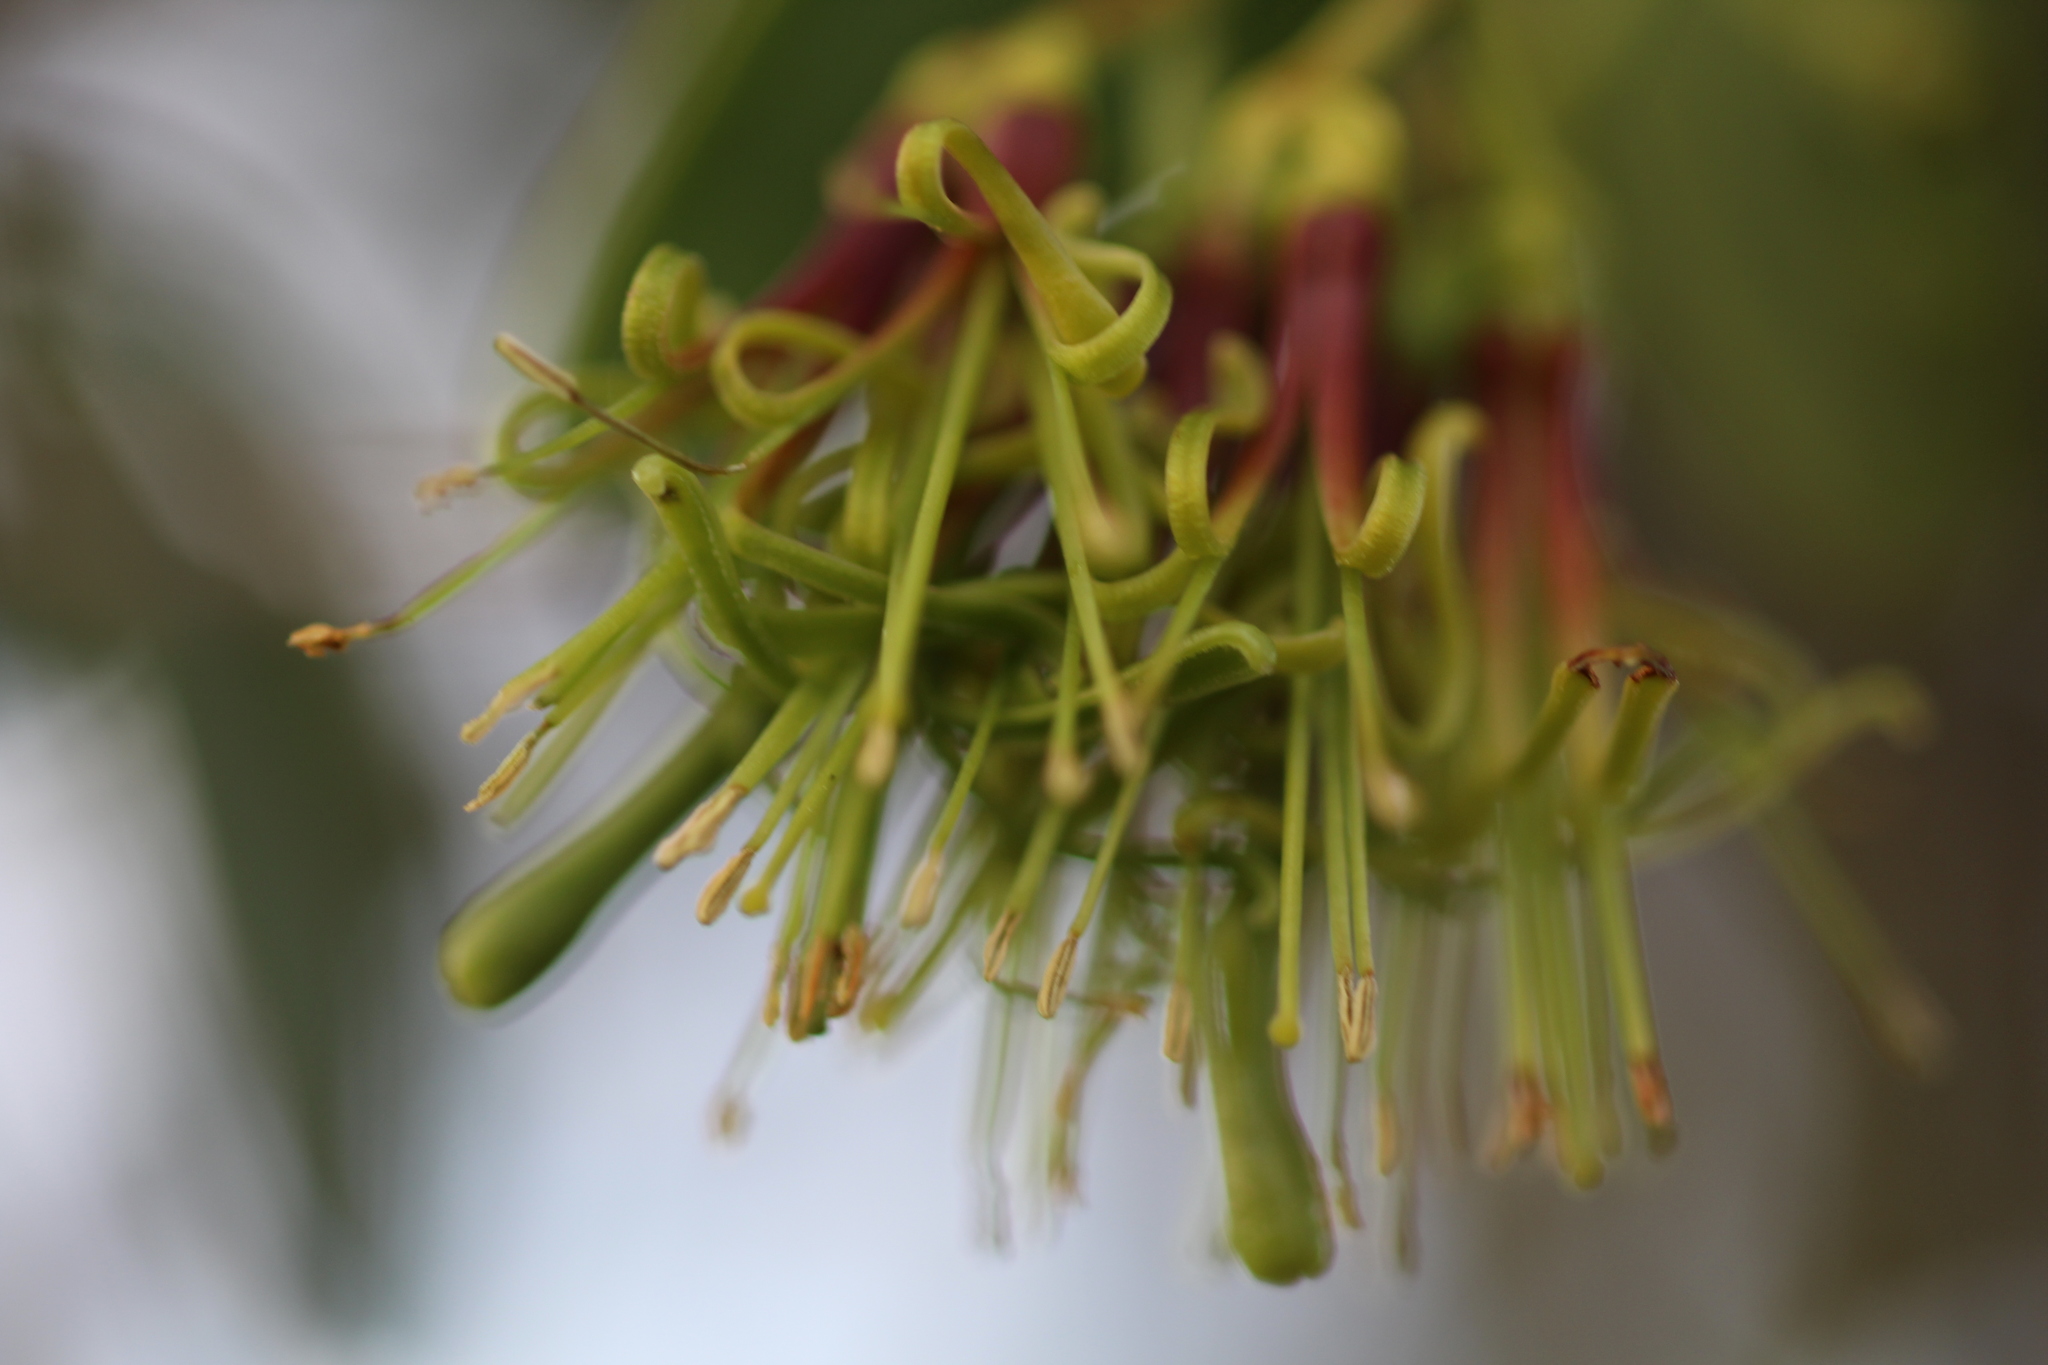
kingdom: Plantae
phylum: Tracheophyta
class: Magnoliopsida
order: Santalales
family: Loranthaceae
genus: Amyema
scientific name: Amyema benthamii
